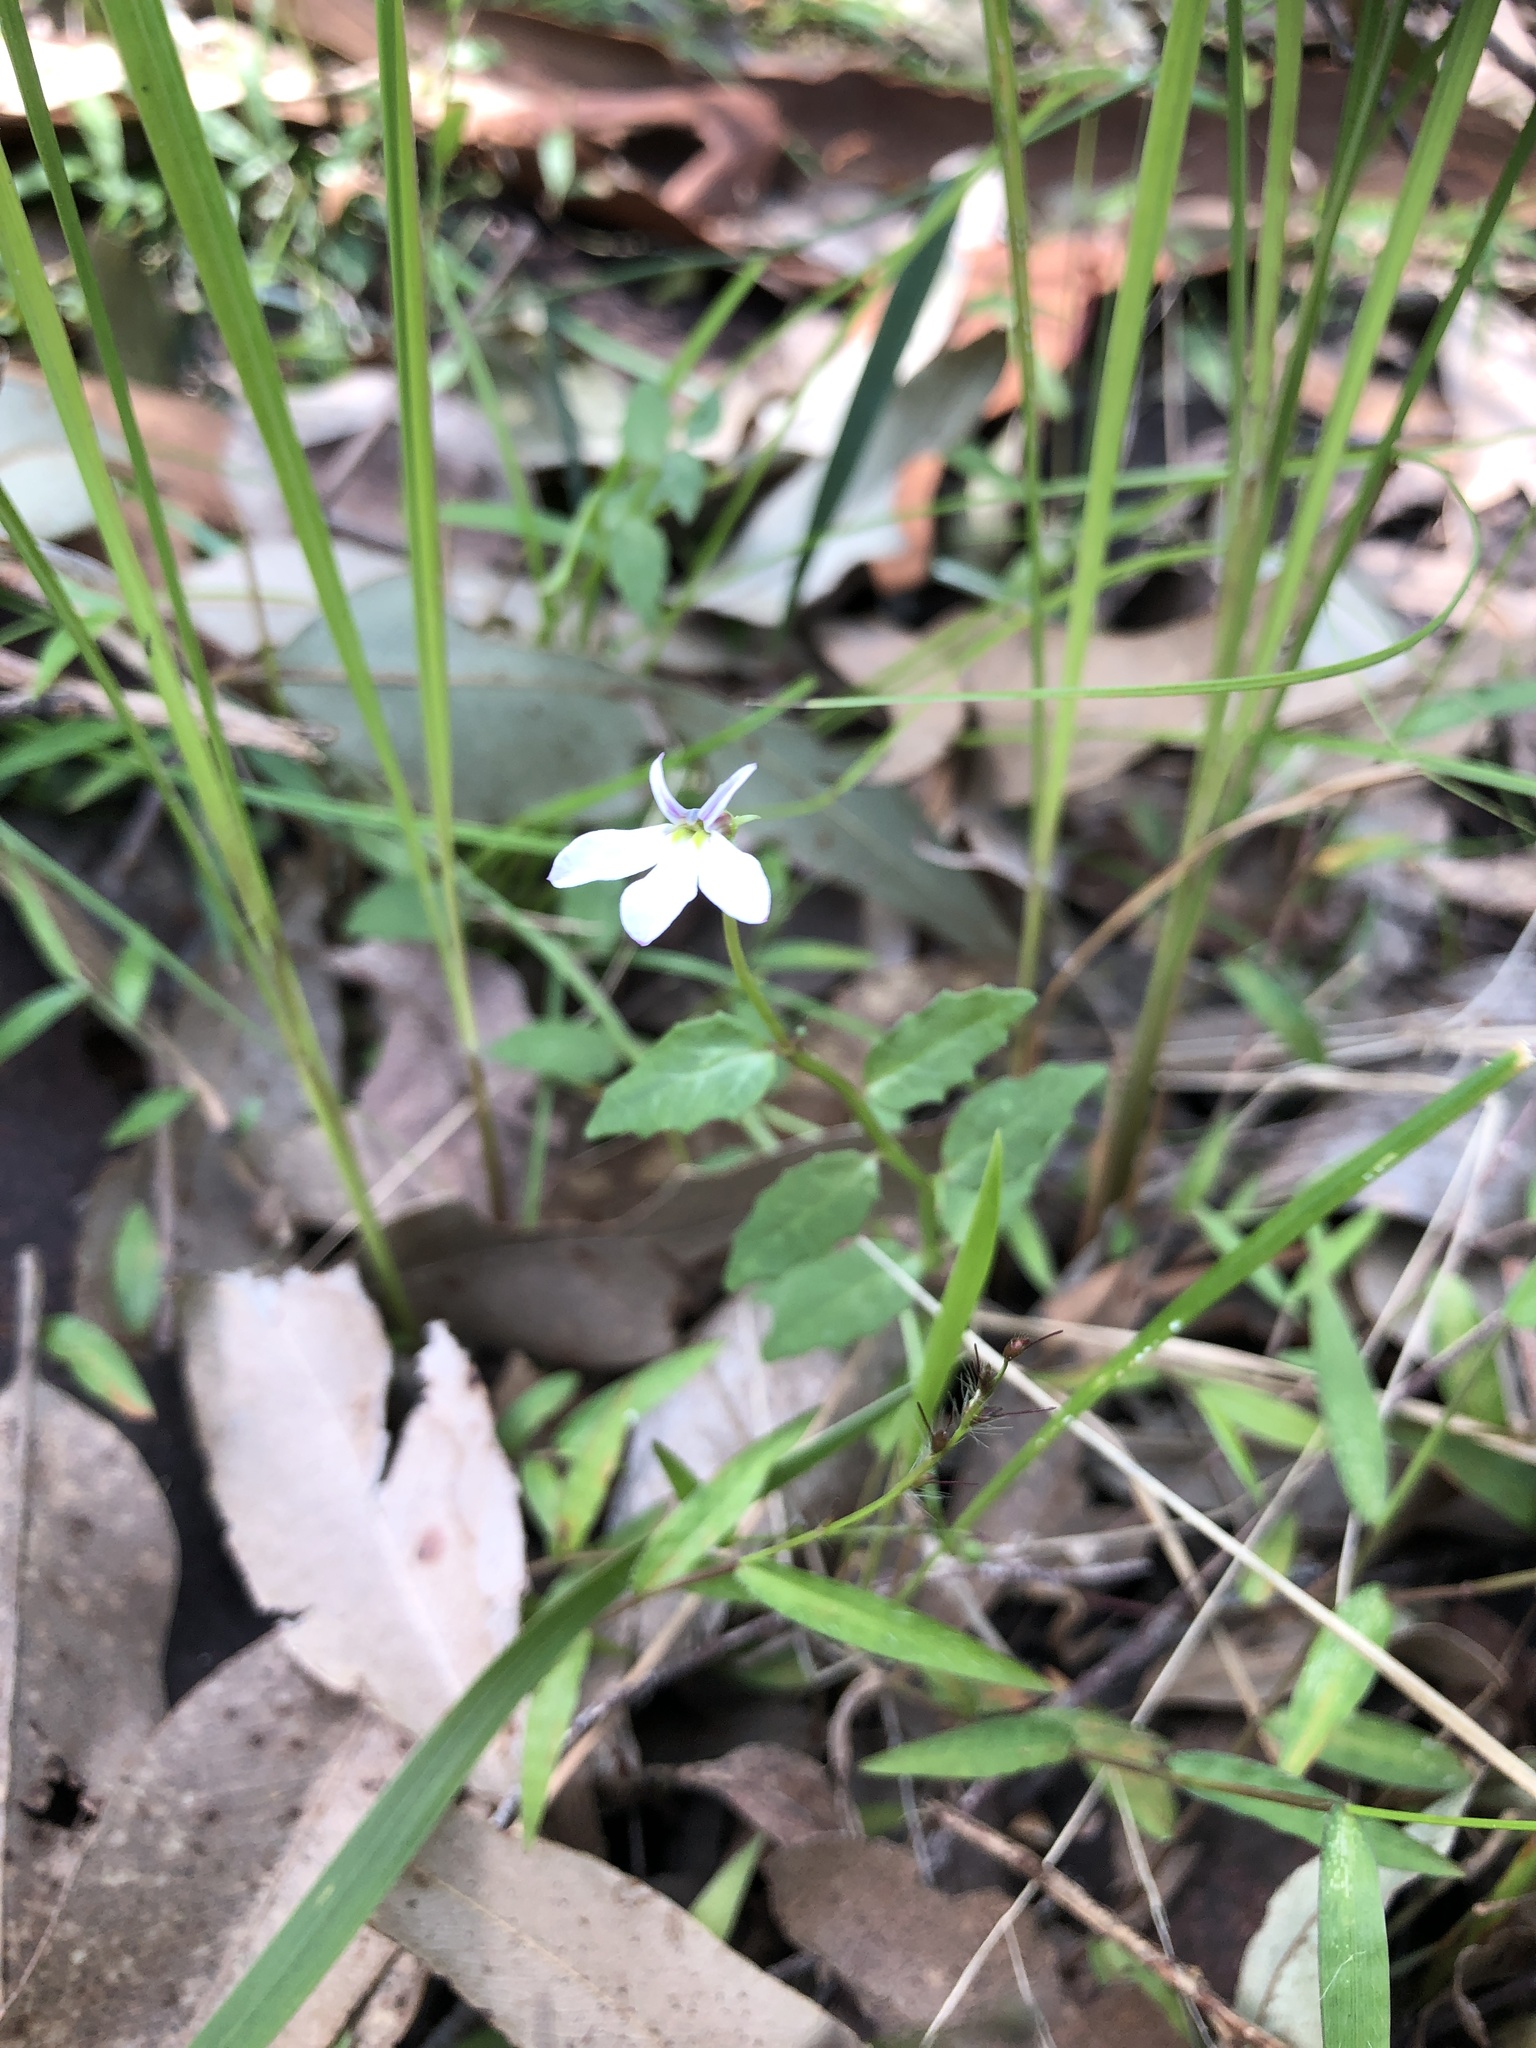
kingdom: Plantae
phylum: Tracheophyta
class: Magnoliopsida
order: Asterales
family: Campanulaceae
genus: Lobelia
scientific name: Lobelia purpurascens
